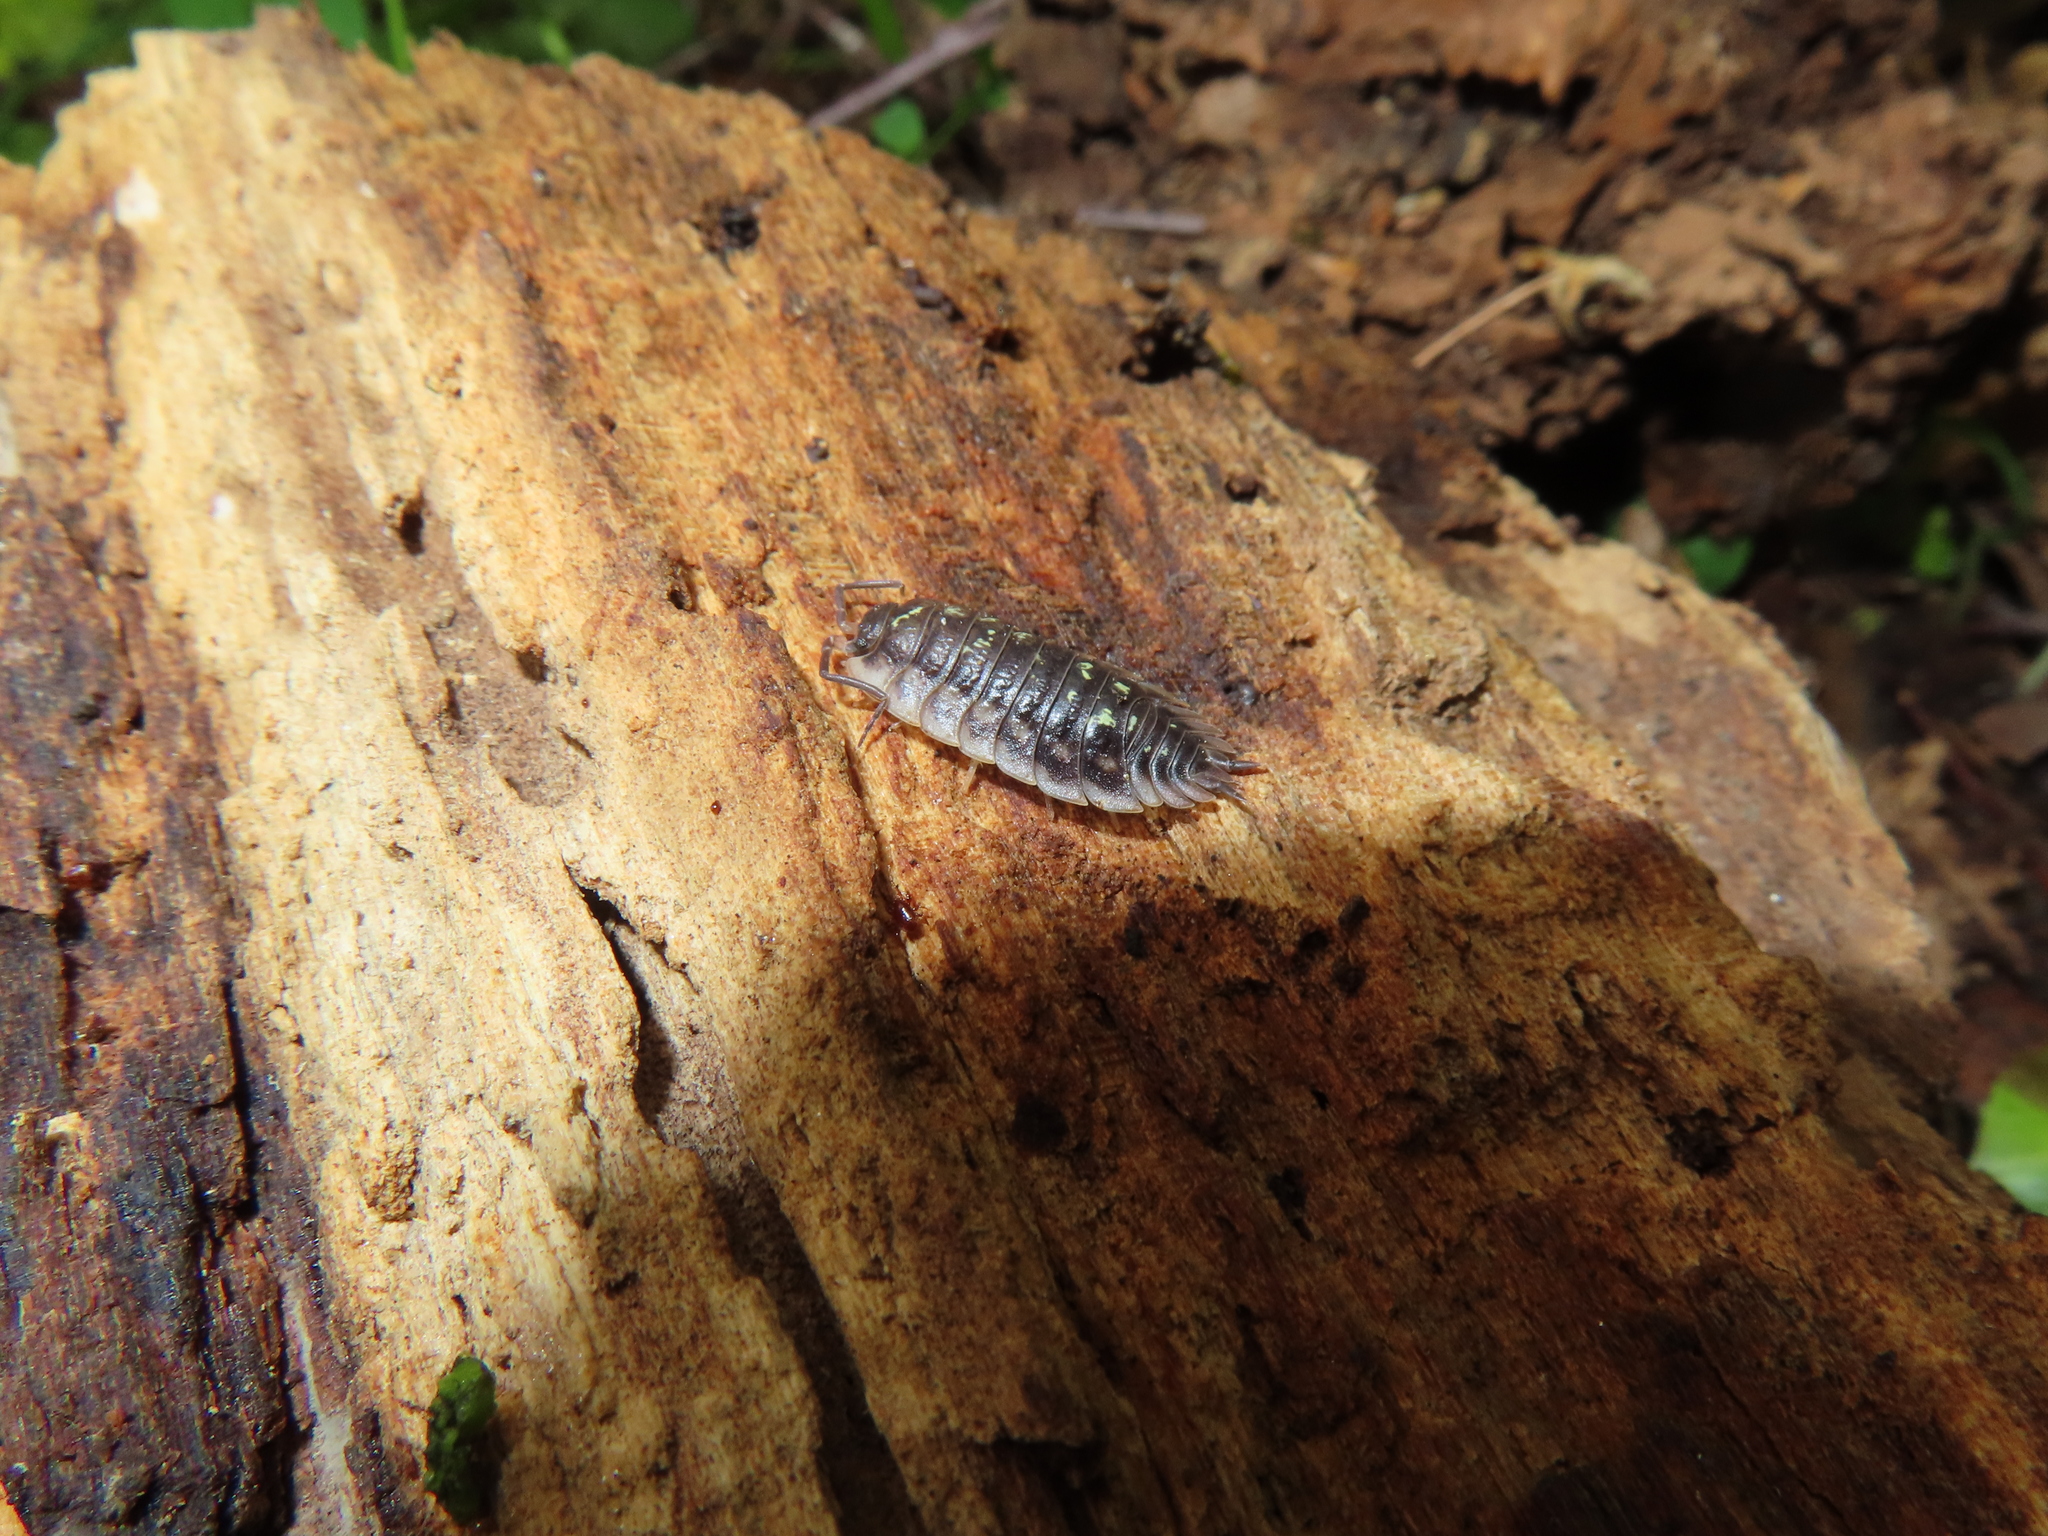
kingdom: Animalia
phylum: Arthropoda
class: Malacostraca
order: Isopoda
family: Oniscidae
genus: Oniscus
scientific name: Oniscus asellus
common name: Common shiny woodlouse
